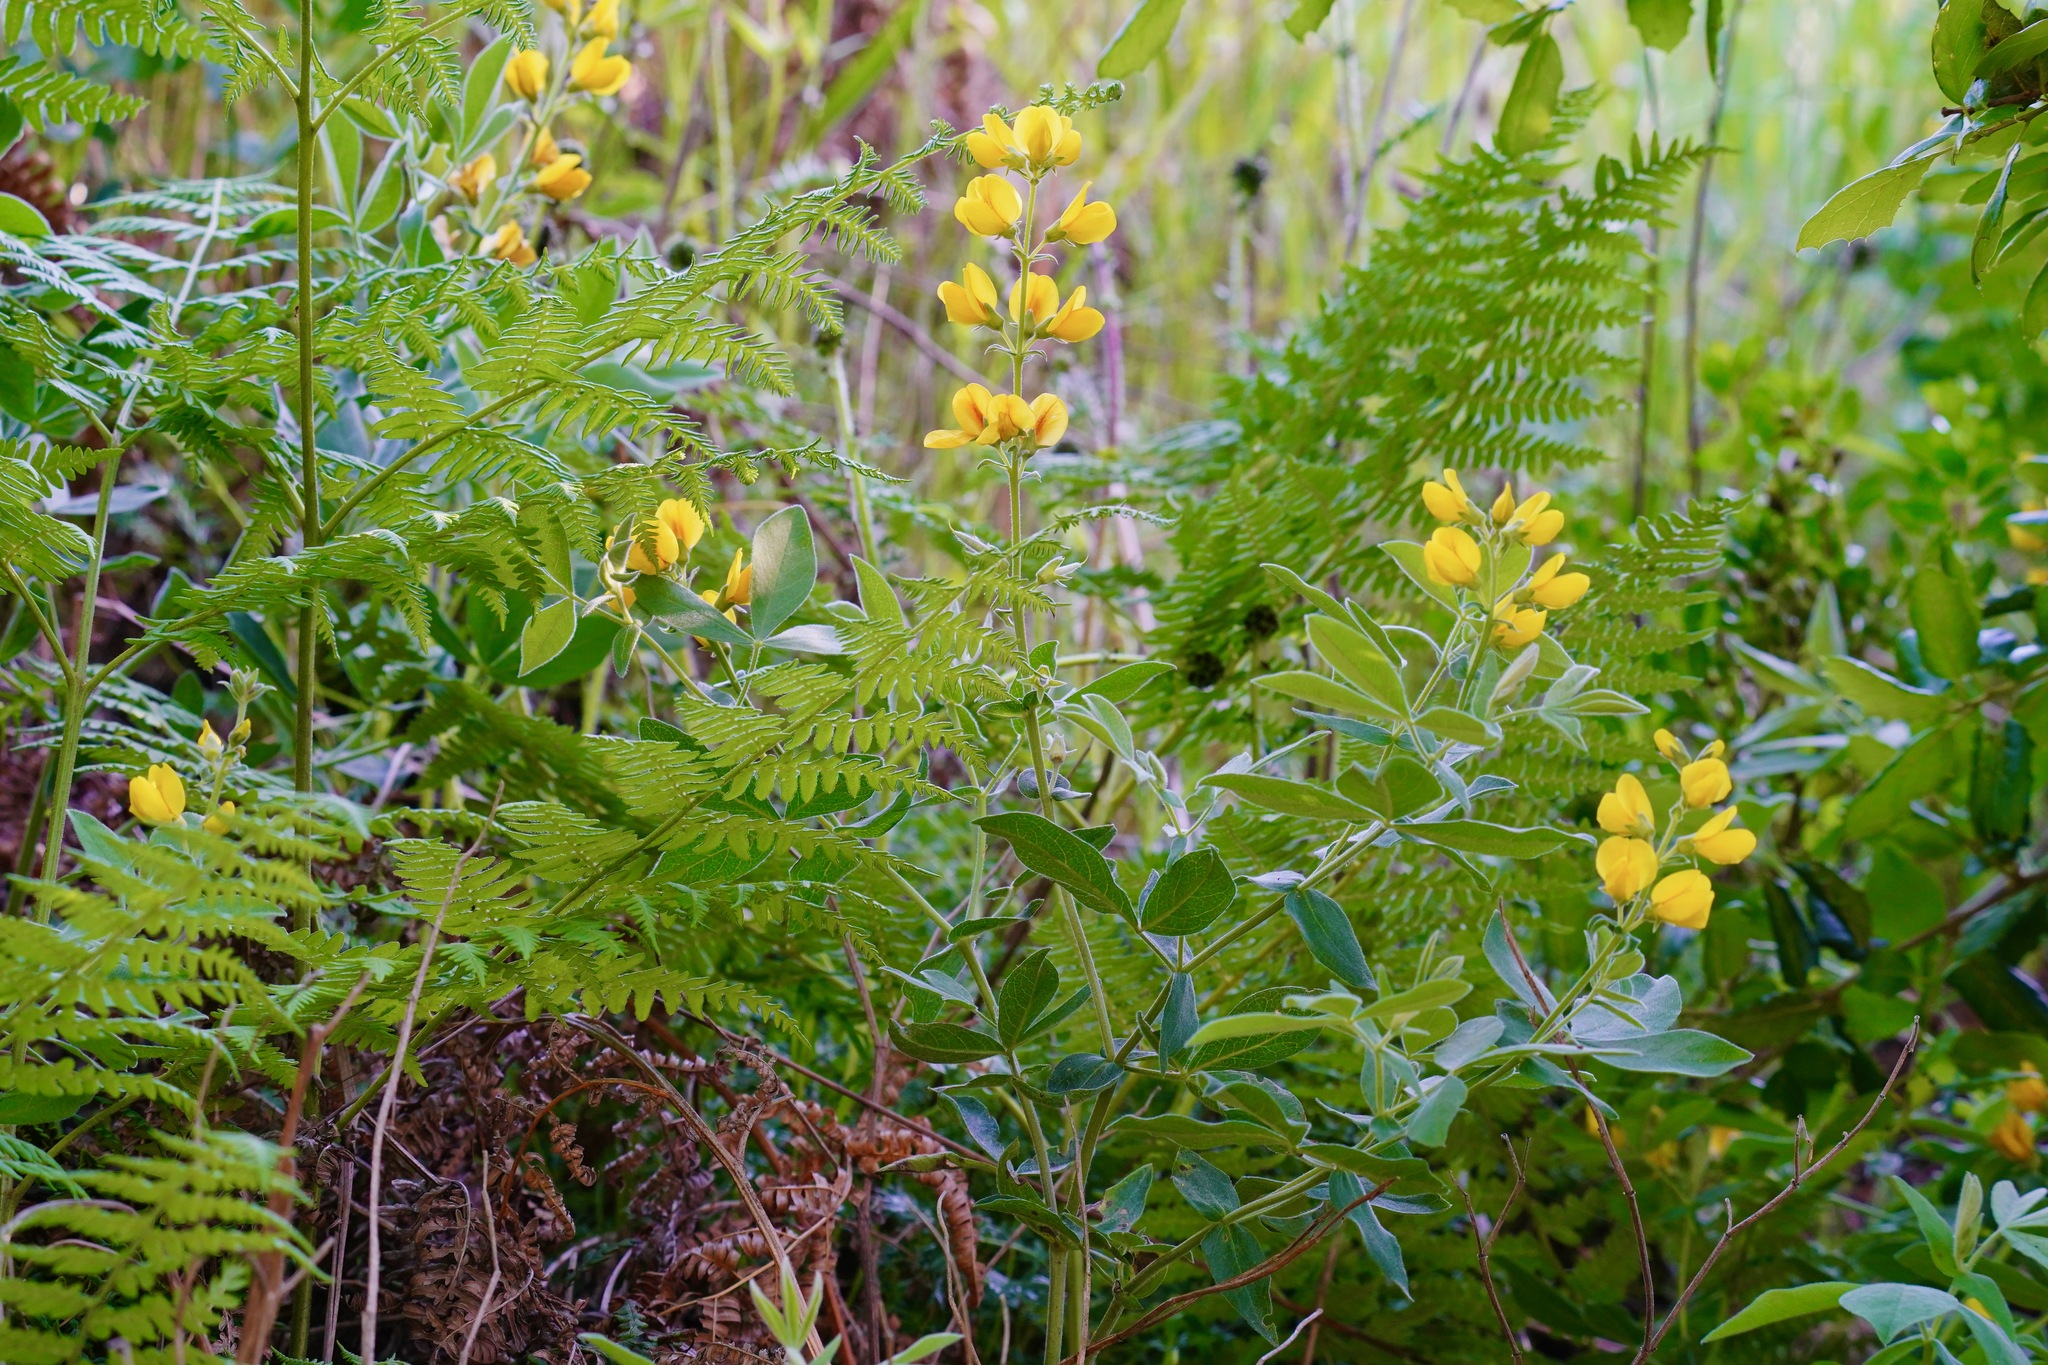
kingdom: Plantae
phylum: Tracheophyta
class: Magnoliopsida
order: Fabales
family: Fabaceae
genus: Thermopsis
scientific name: Thermopsis californica
